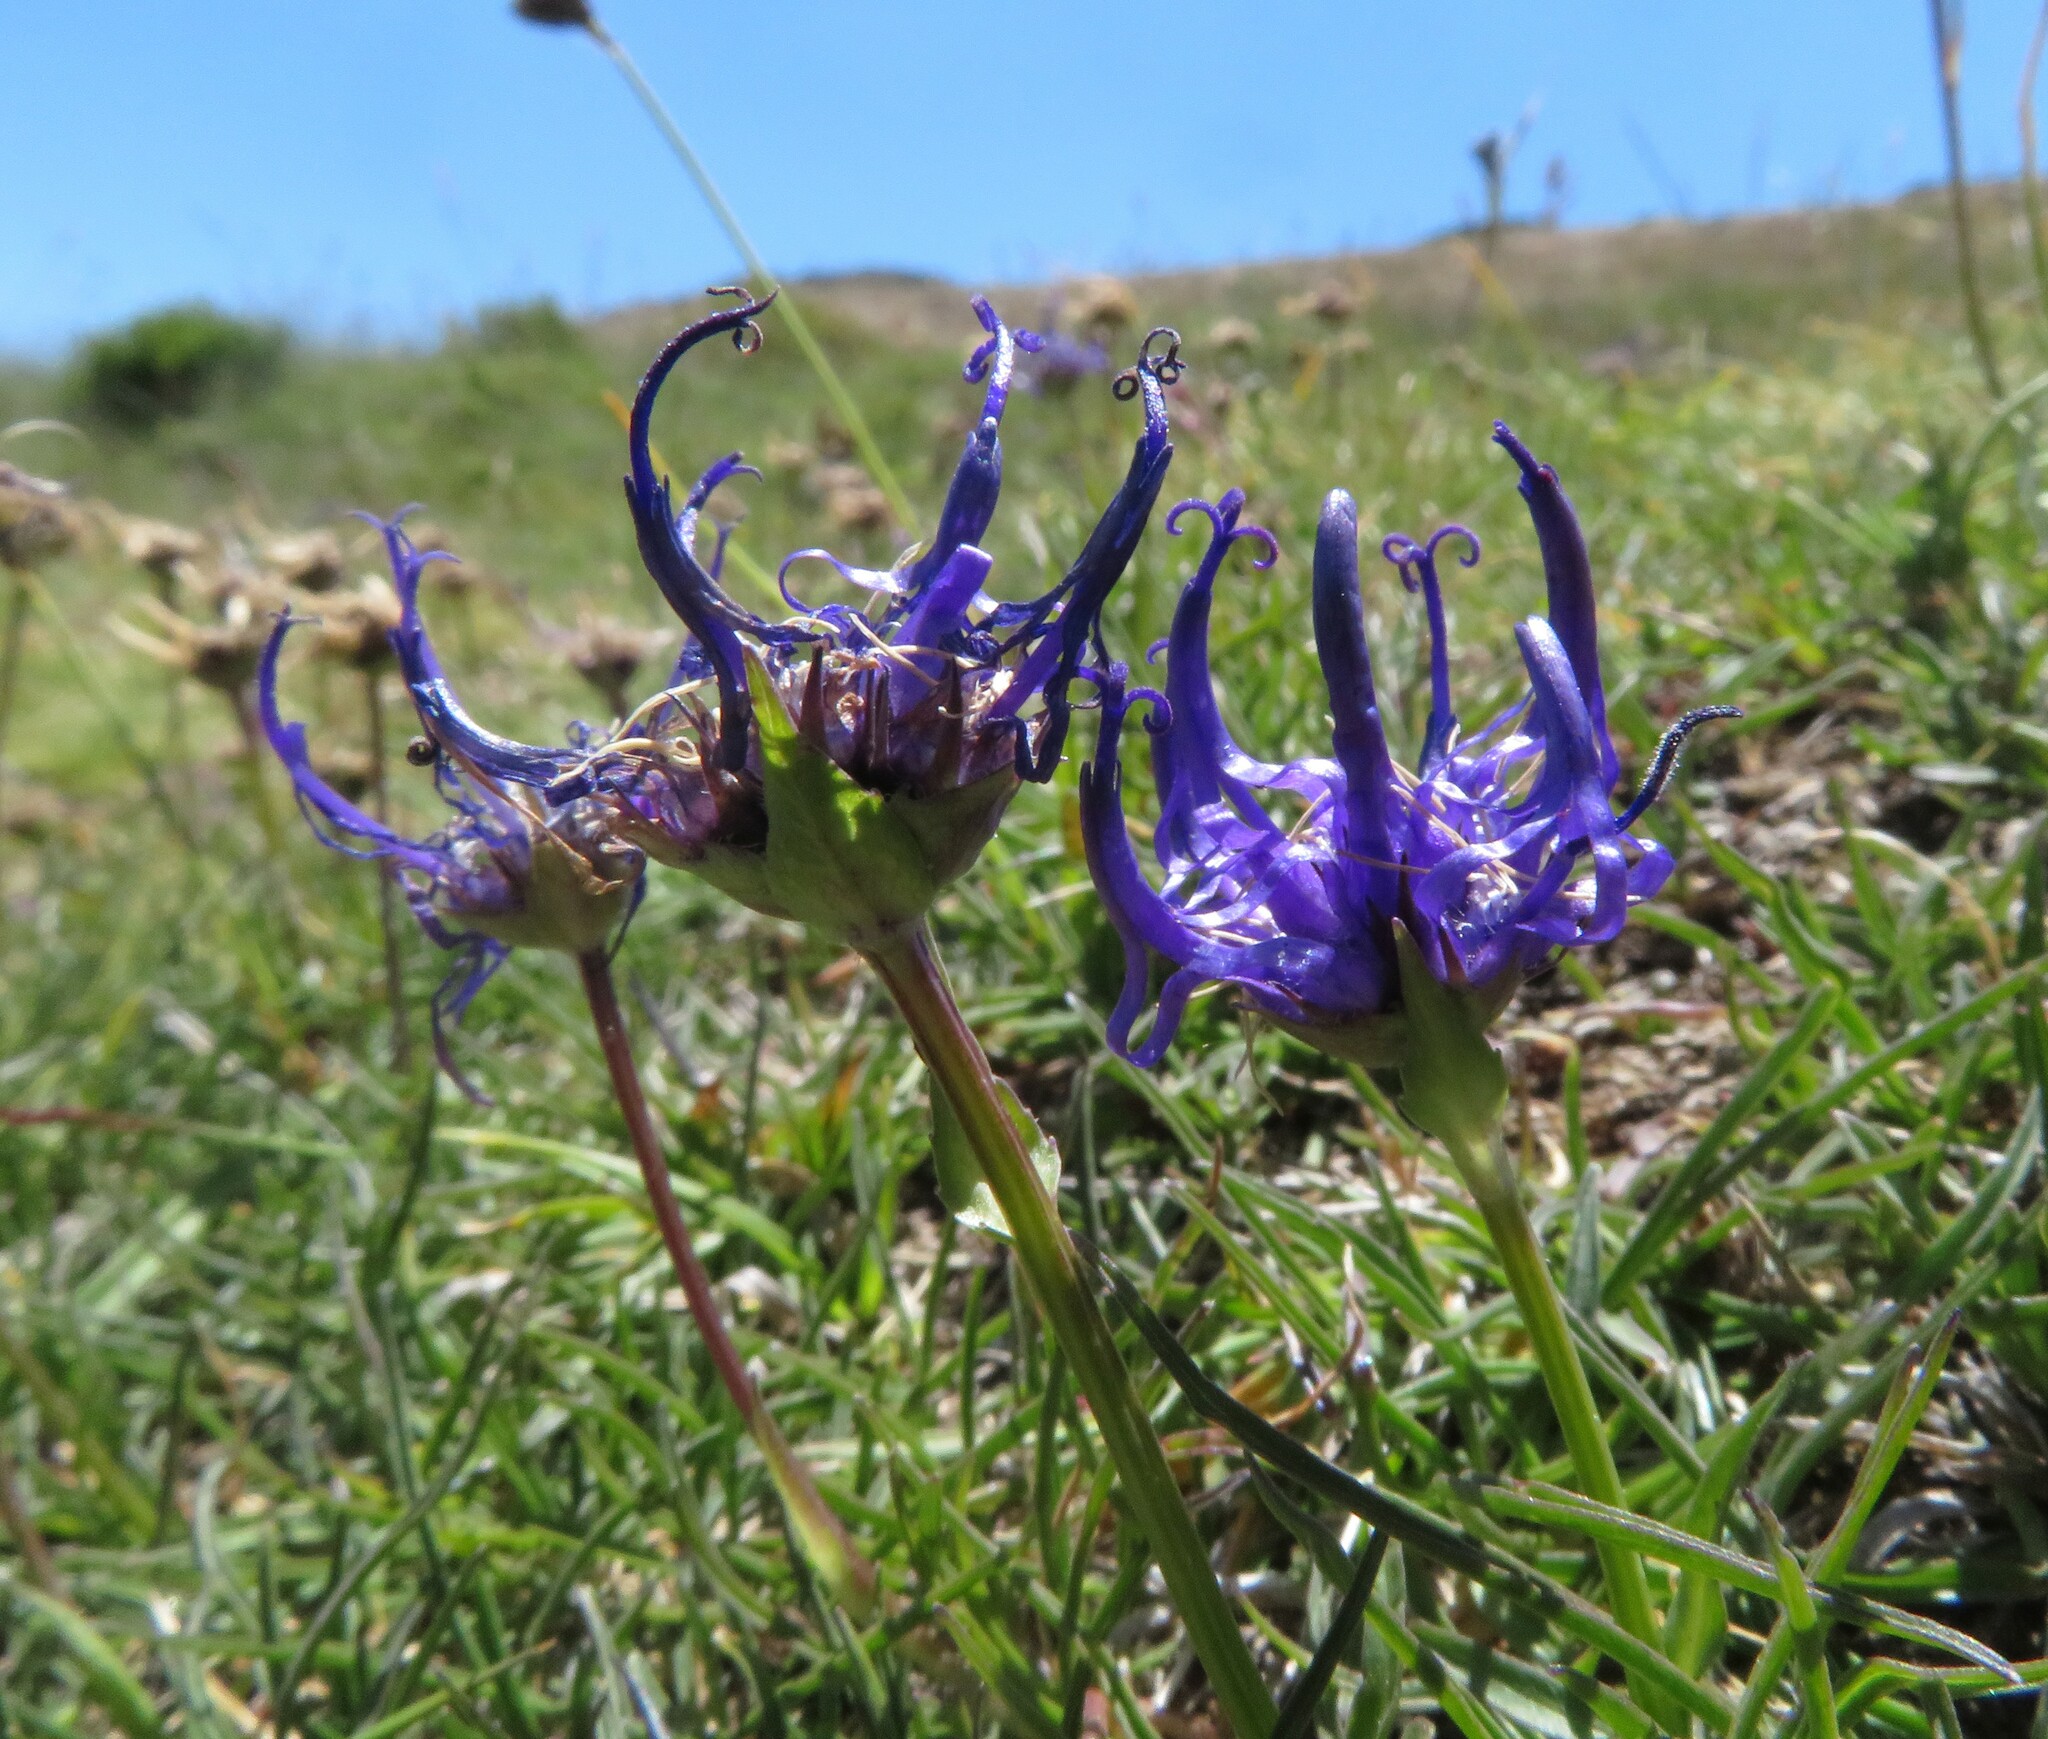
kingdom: Plantae
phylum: Tracheophyta
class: Magnoliopsida
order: Asterales
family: Campanulaceae
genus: Phyteuma
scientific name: Phyteuma hemisphaericum
